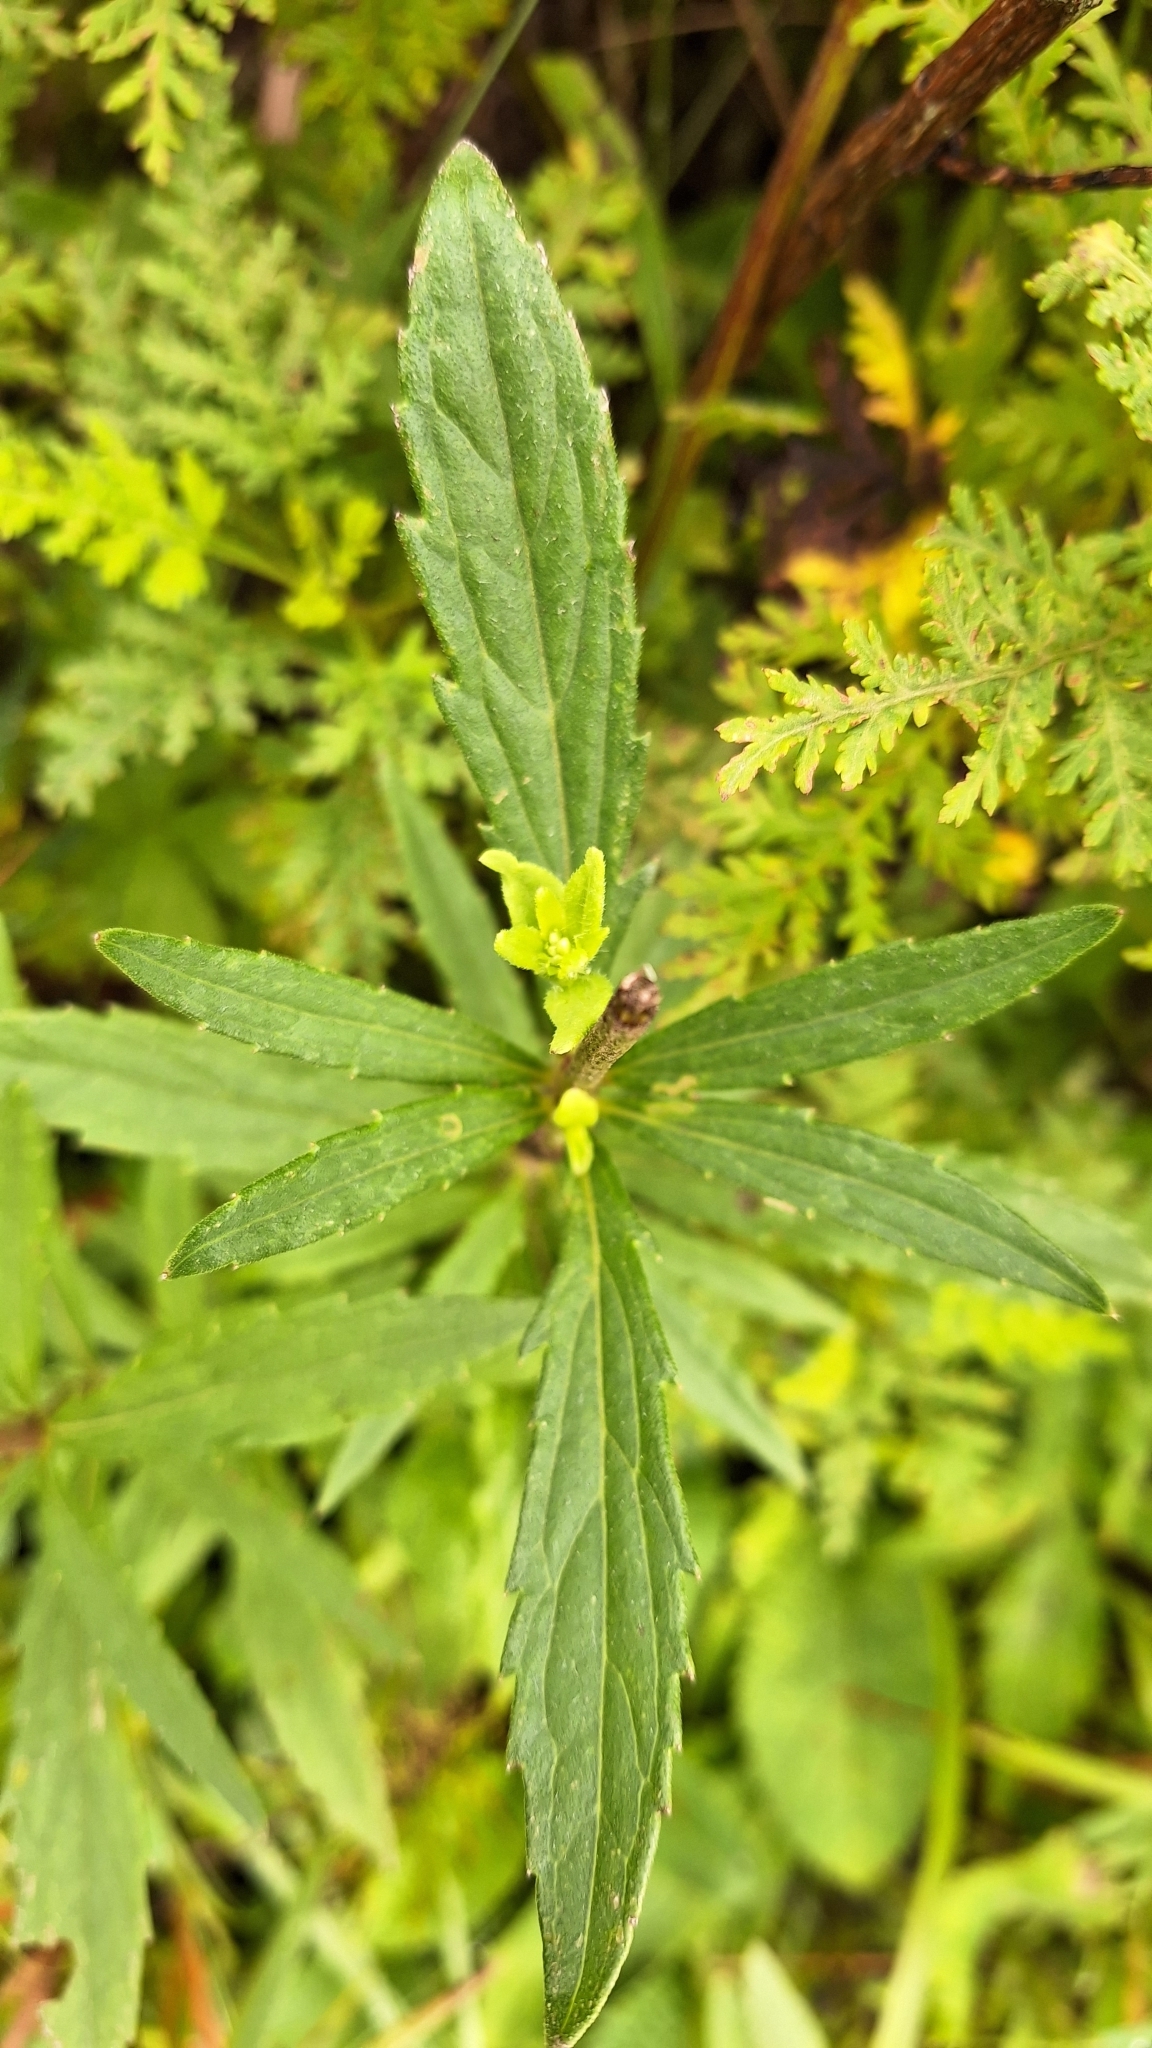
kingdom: Plantae
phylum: Tracheophyta
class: Magnoliopsida
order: Asterales
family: Asteraceae
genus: Eupatorium
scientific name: Eupatorium lindleyanum
